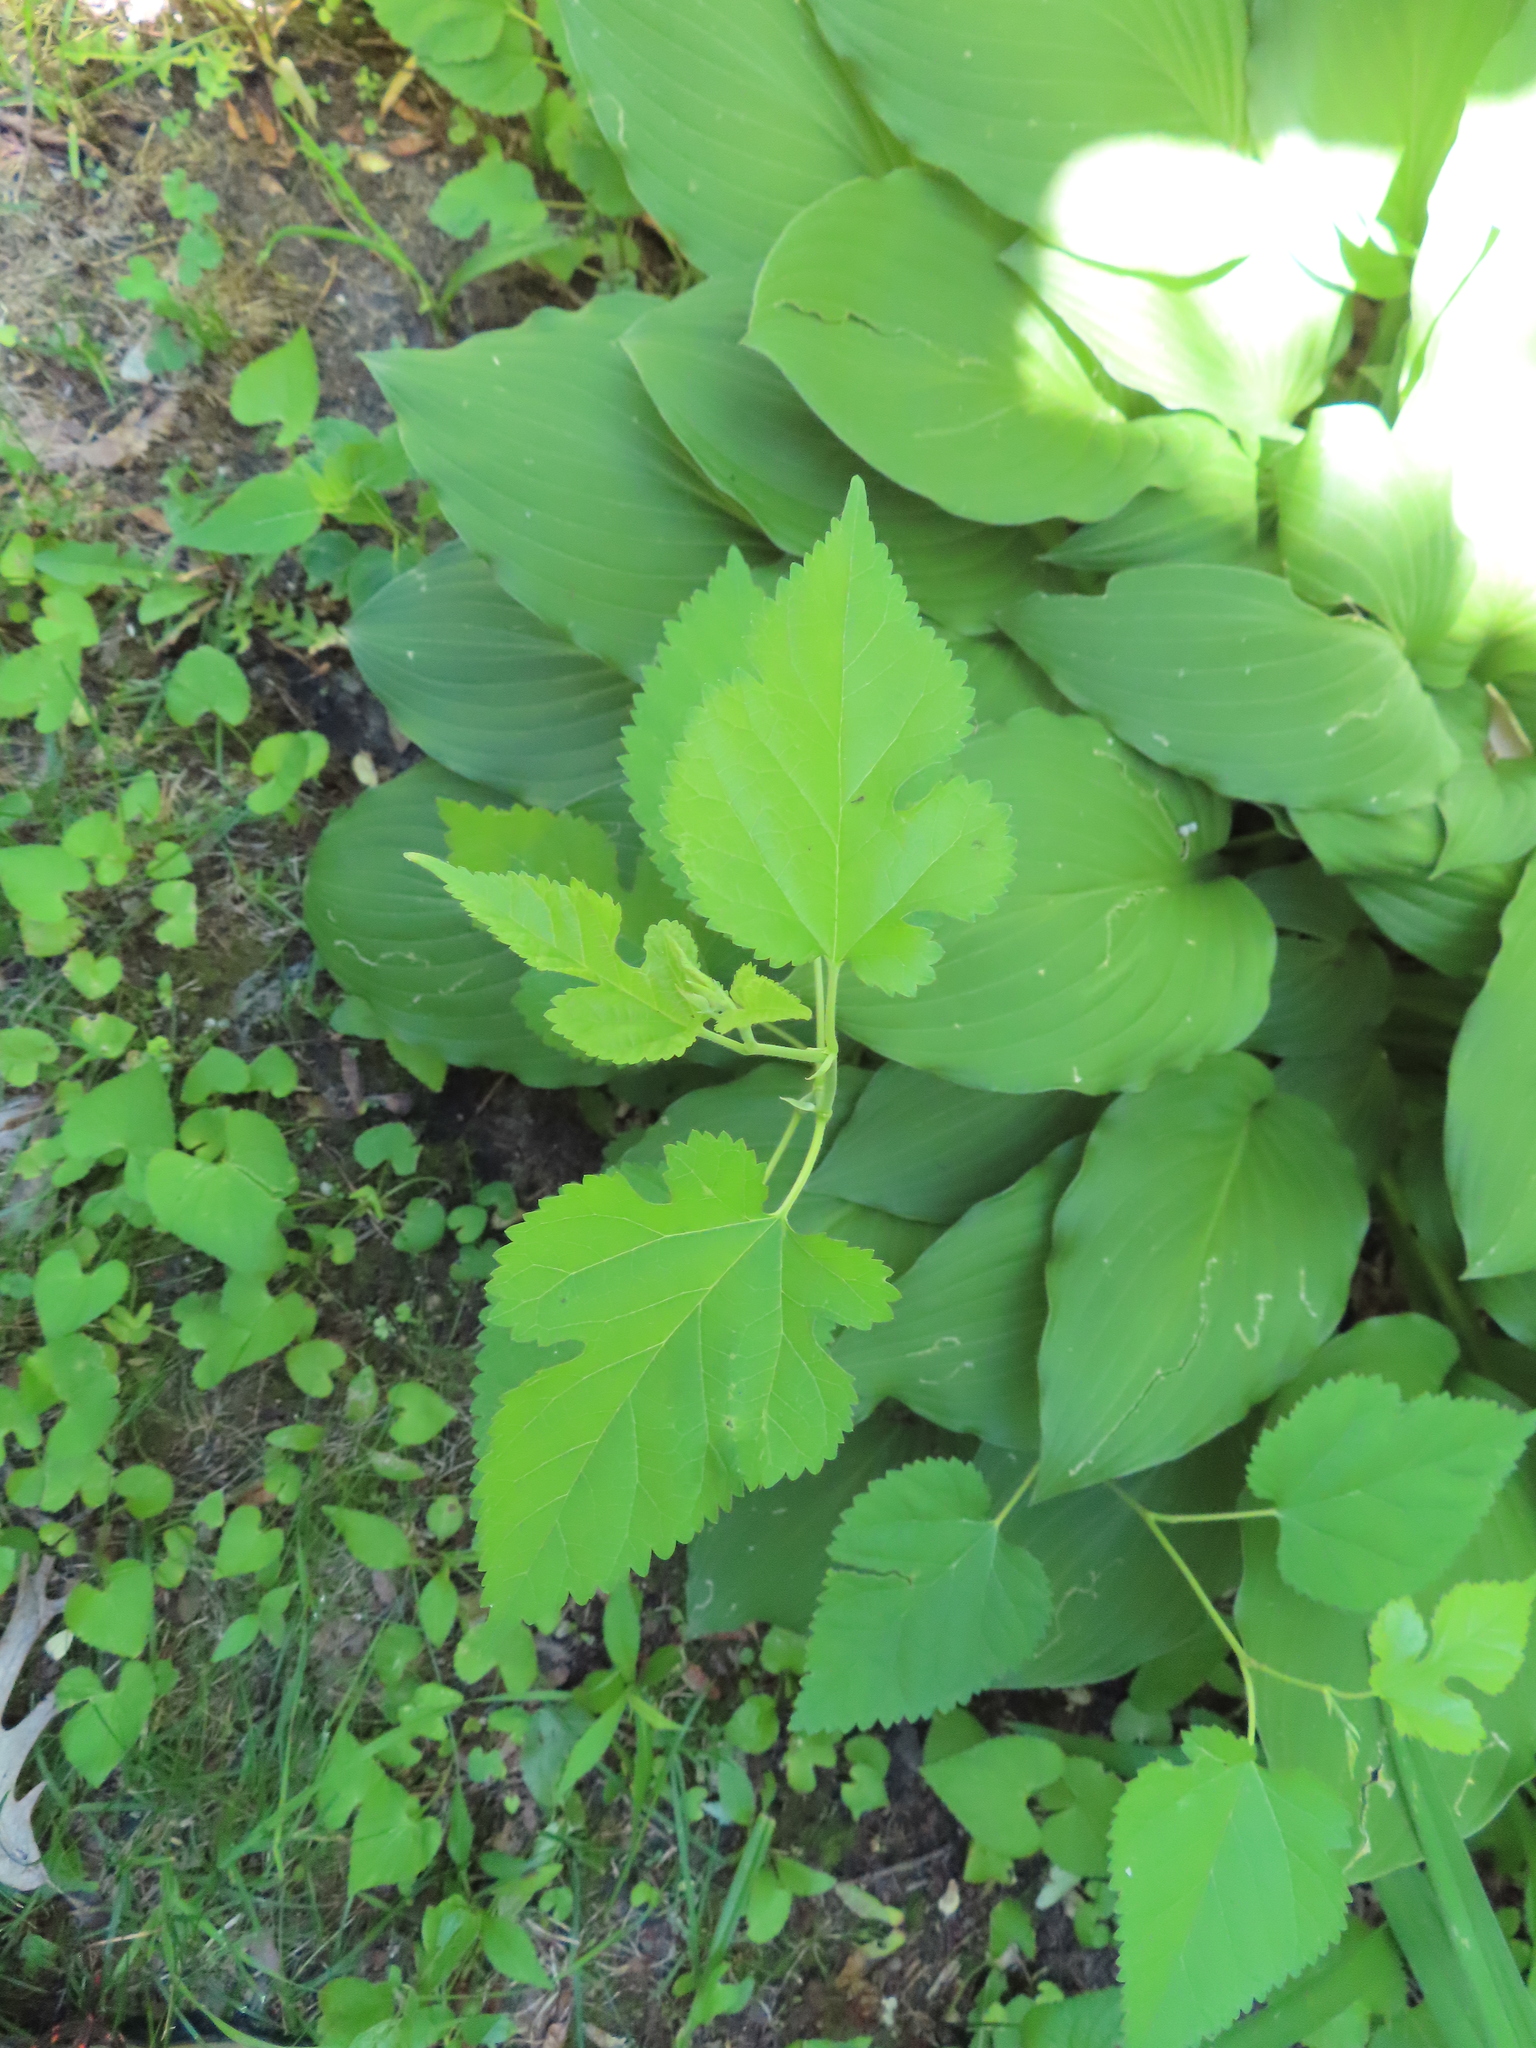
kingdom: Plantae
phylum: Tracheophyta
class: Magnoliopsida
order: Rosales
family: Moraceae
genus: Morus
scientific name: Morus alba
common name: White mulberry
